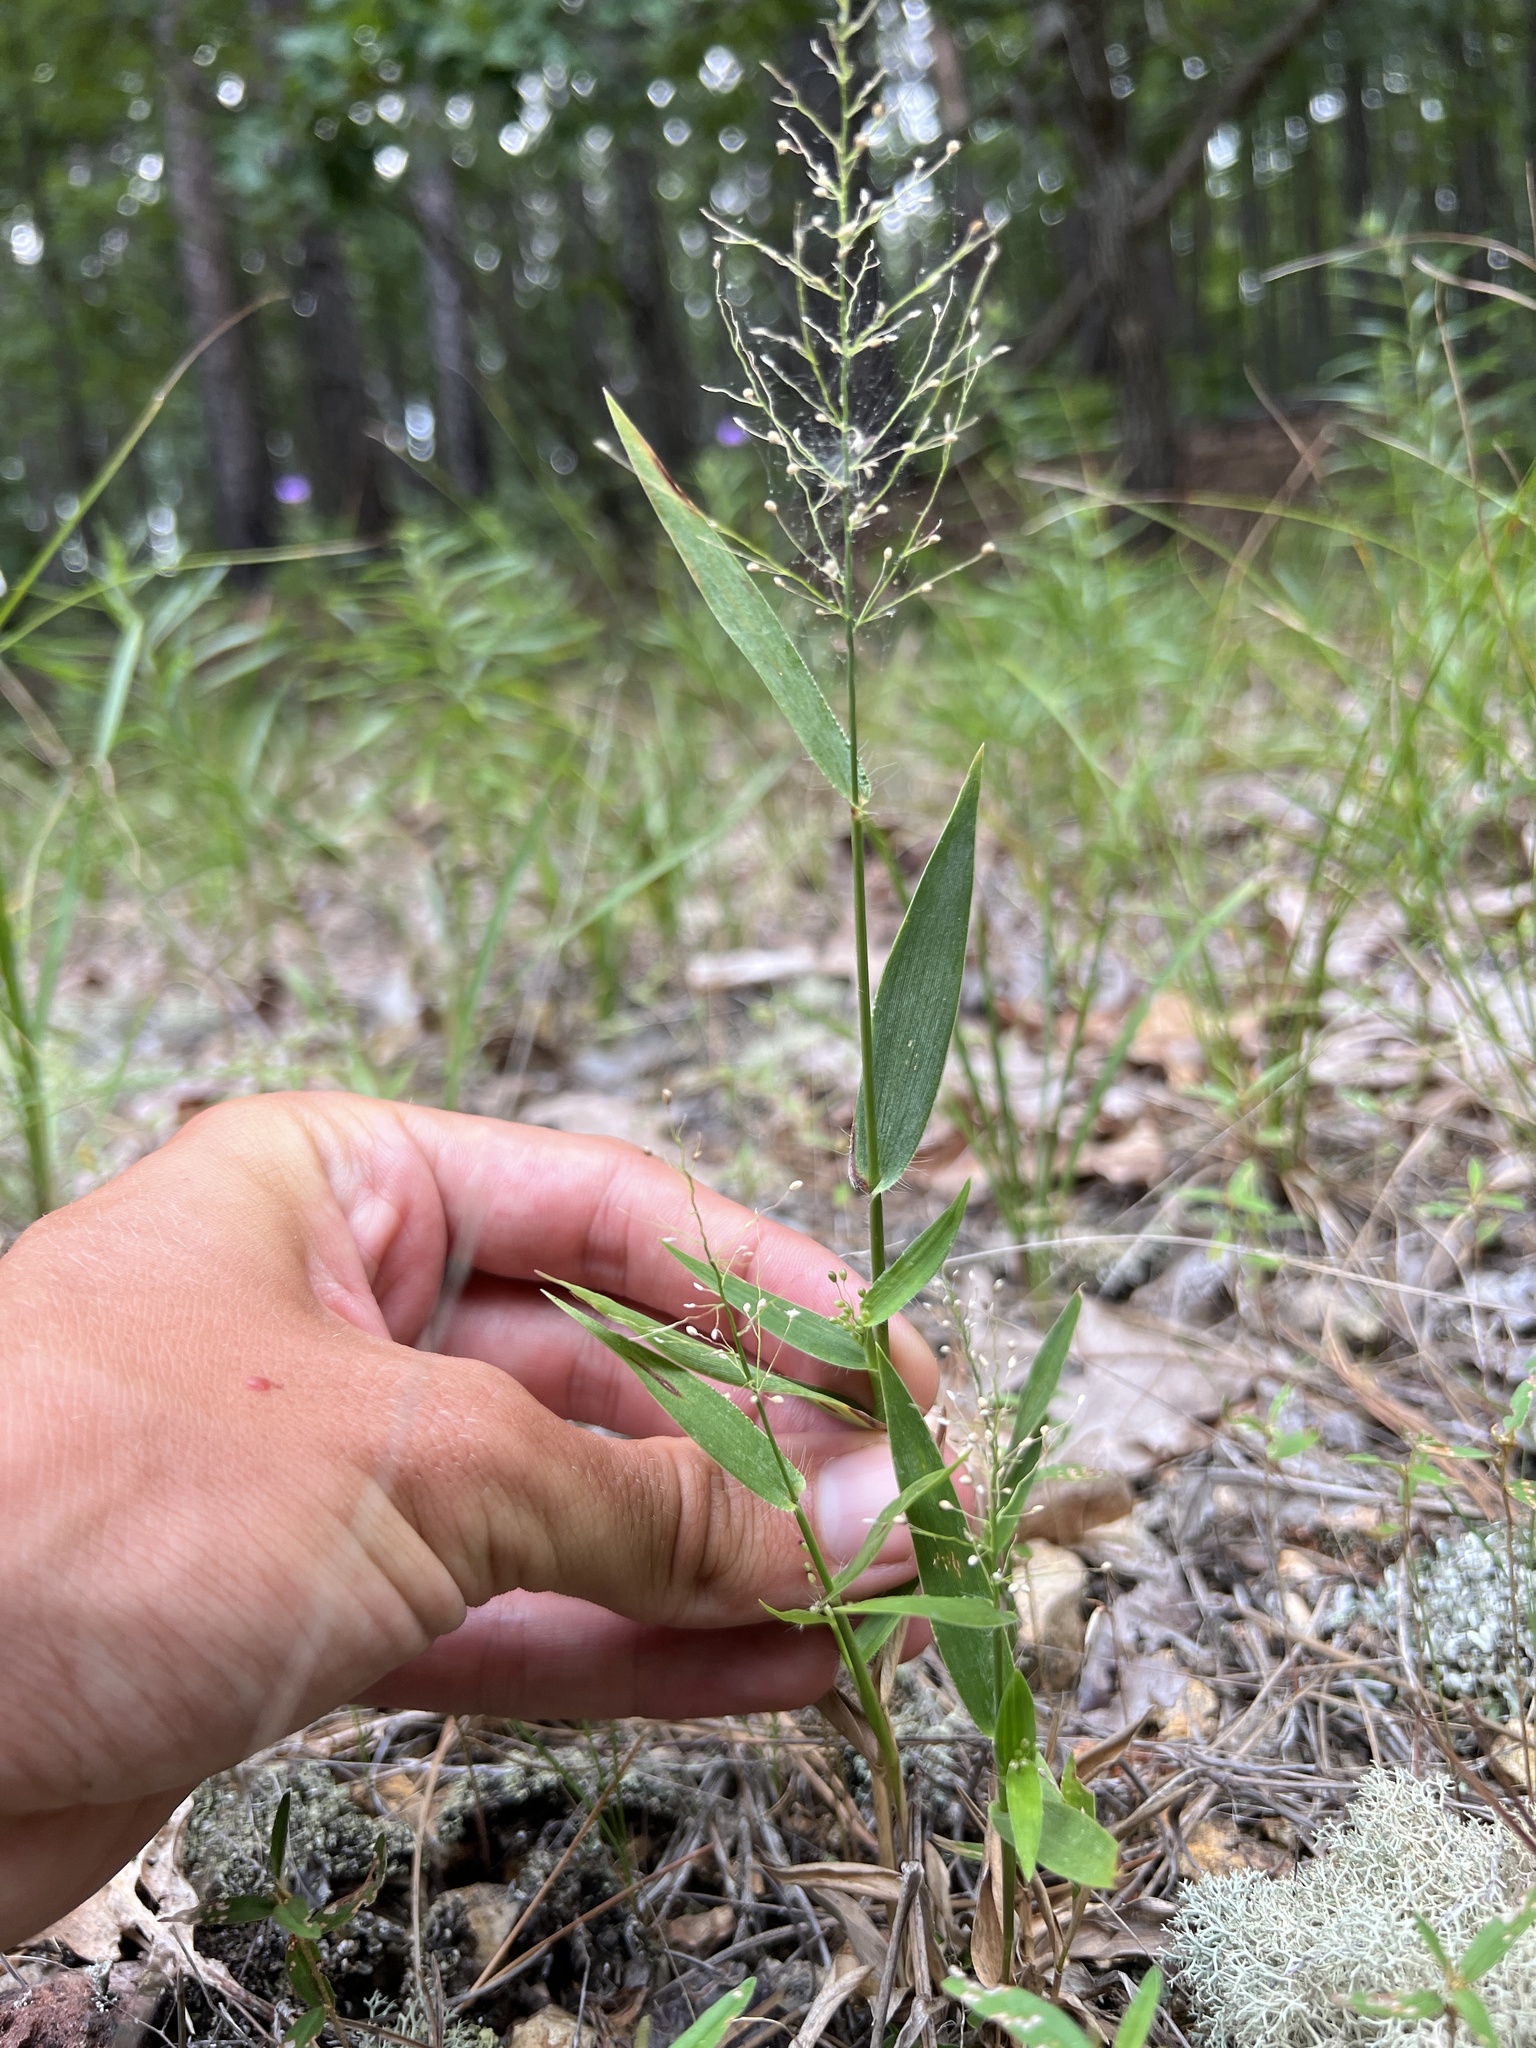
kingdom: Plantae
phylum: Tracheophyta
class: Liliopsida
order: Poales
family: Poaceae
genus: Dichanthelium
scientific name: Dichanthelium sphaerocarpon
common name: Round-fruited panicgrass
